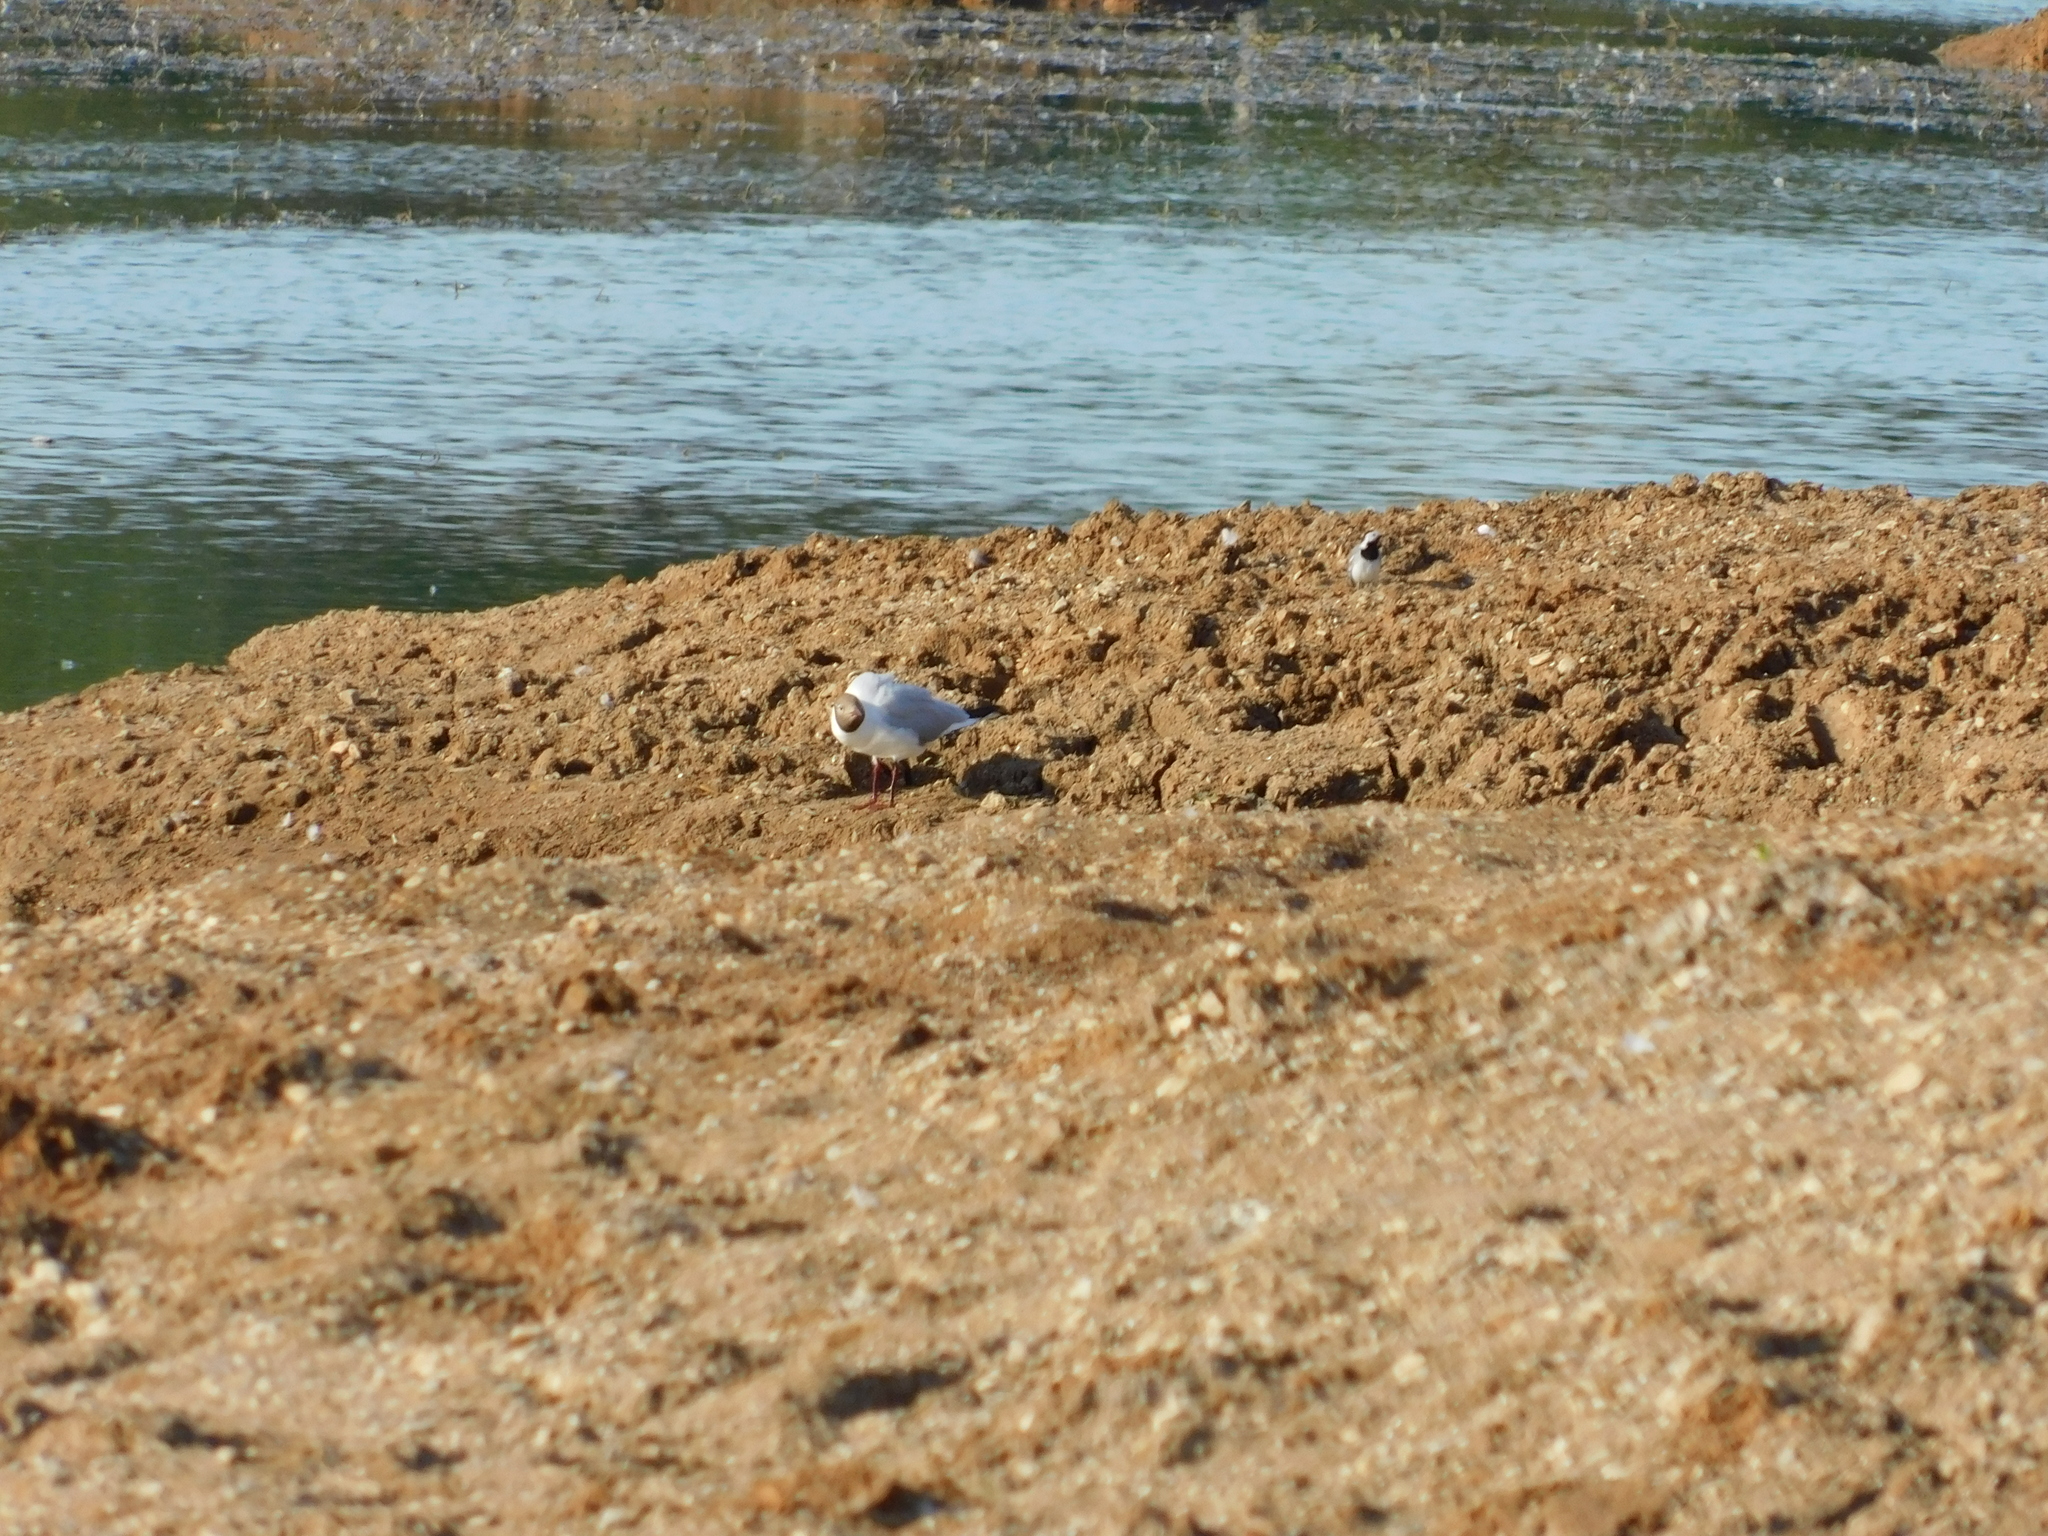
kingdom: Animalia
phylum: Chordata
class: Aves
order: Charadriiformes
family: Laridae
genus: Chroicocephalus
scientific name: Chroicocephalus ridibundus
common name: Black-headed gull
